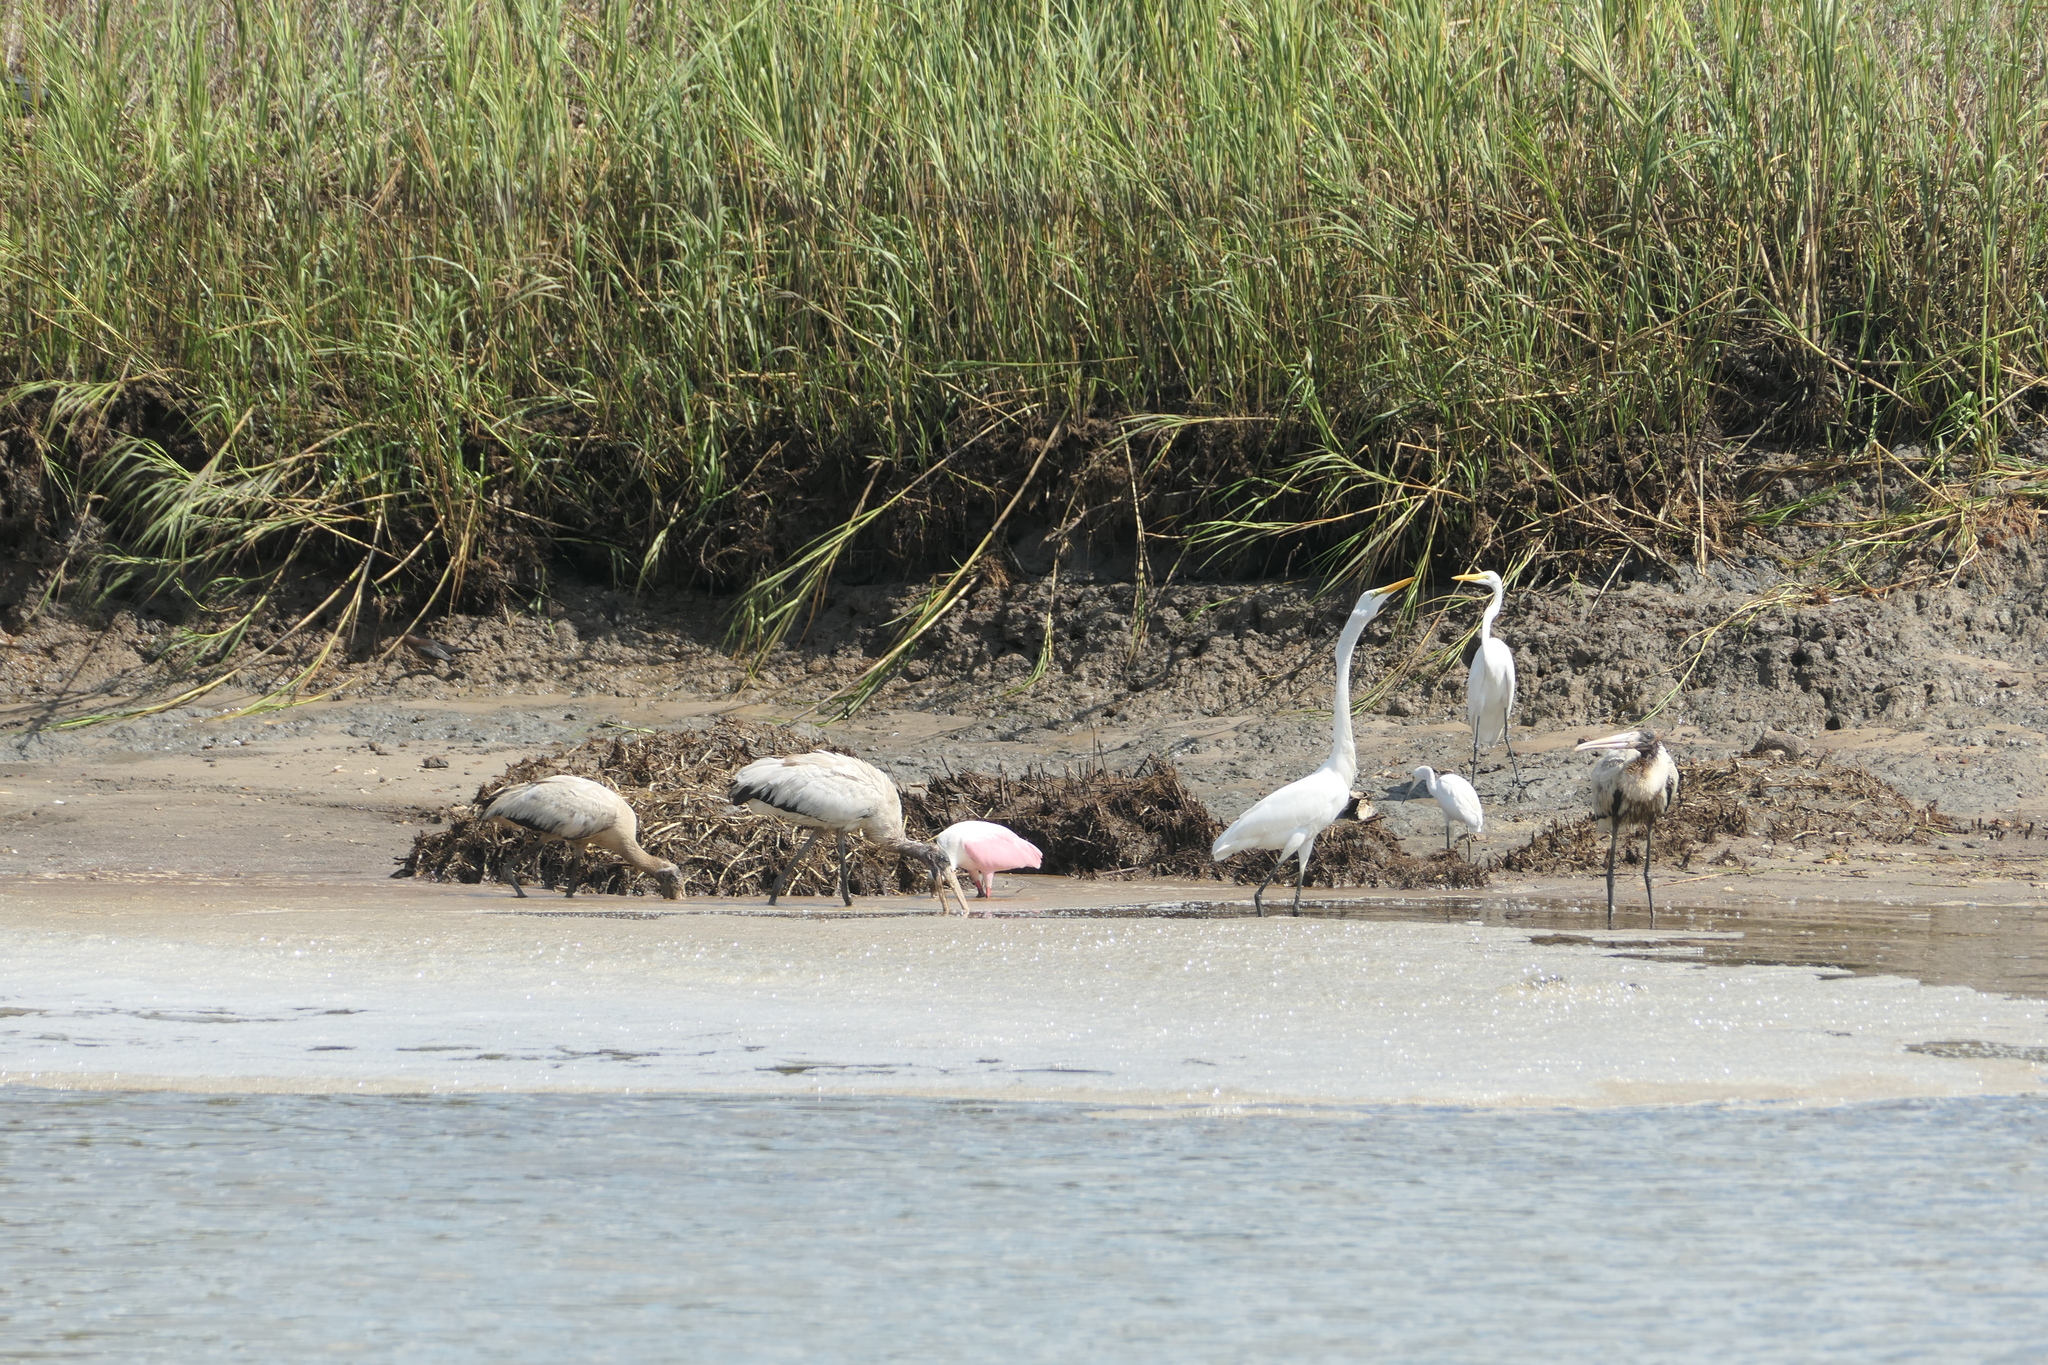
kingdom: Animalia
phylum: Chordata
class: Aves
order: Pelecaniformes
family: Threskiornithidae
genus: Platalea
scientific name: Platalea ajaja
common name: Roseate spoonbill
